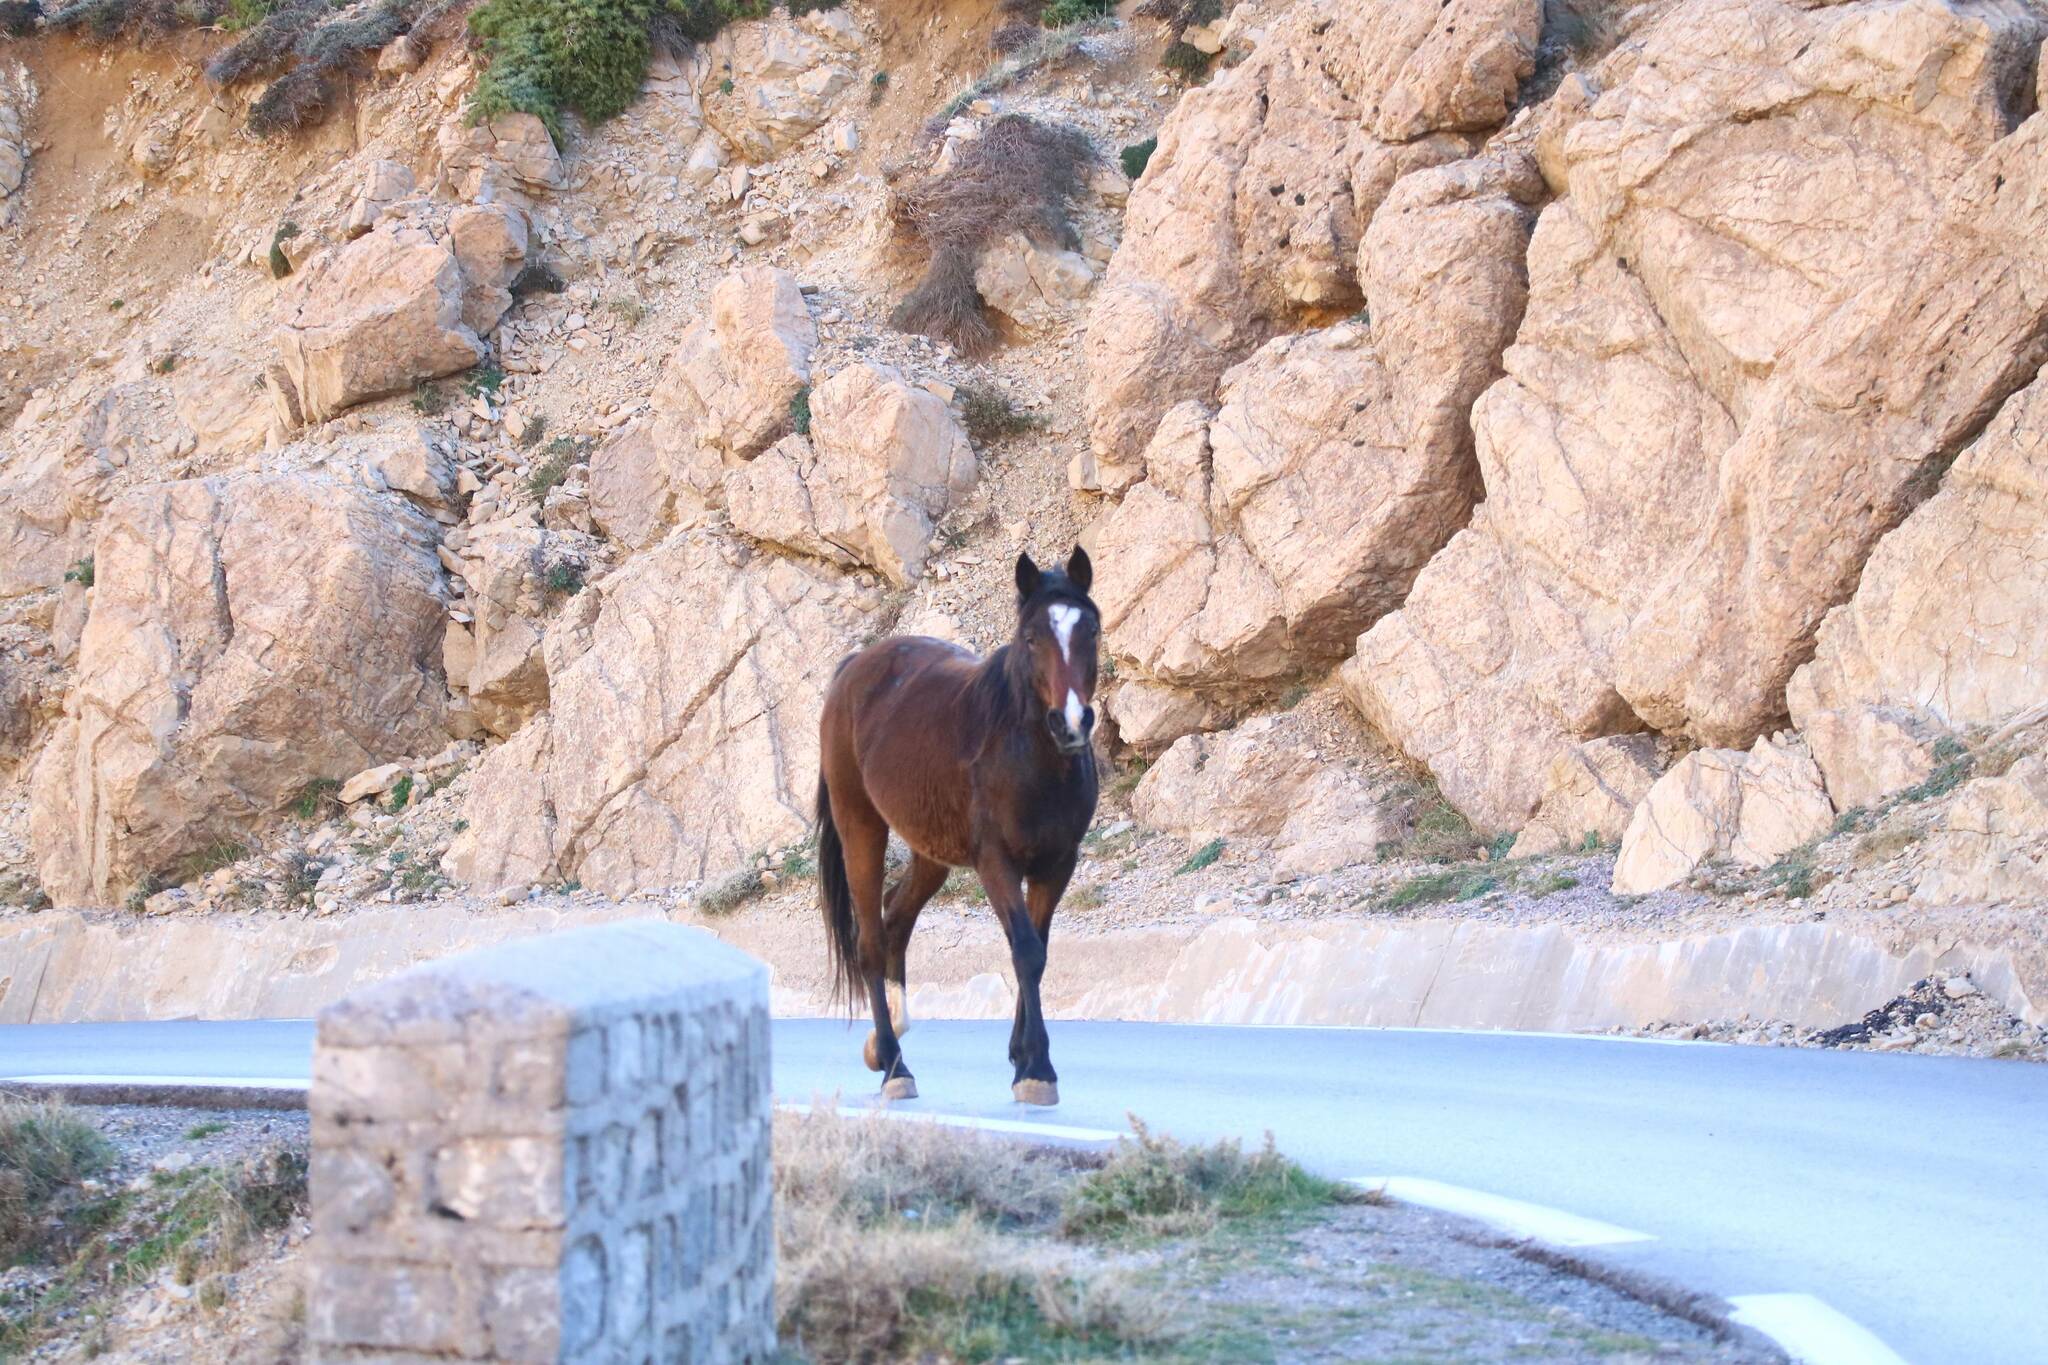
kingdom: Animalia
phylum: Chordata
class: Mammalia
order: Perissodactyla
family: Equidae
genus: Equus
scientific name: Equus caballus
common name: Horse
